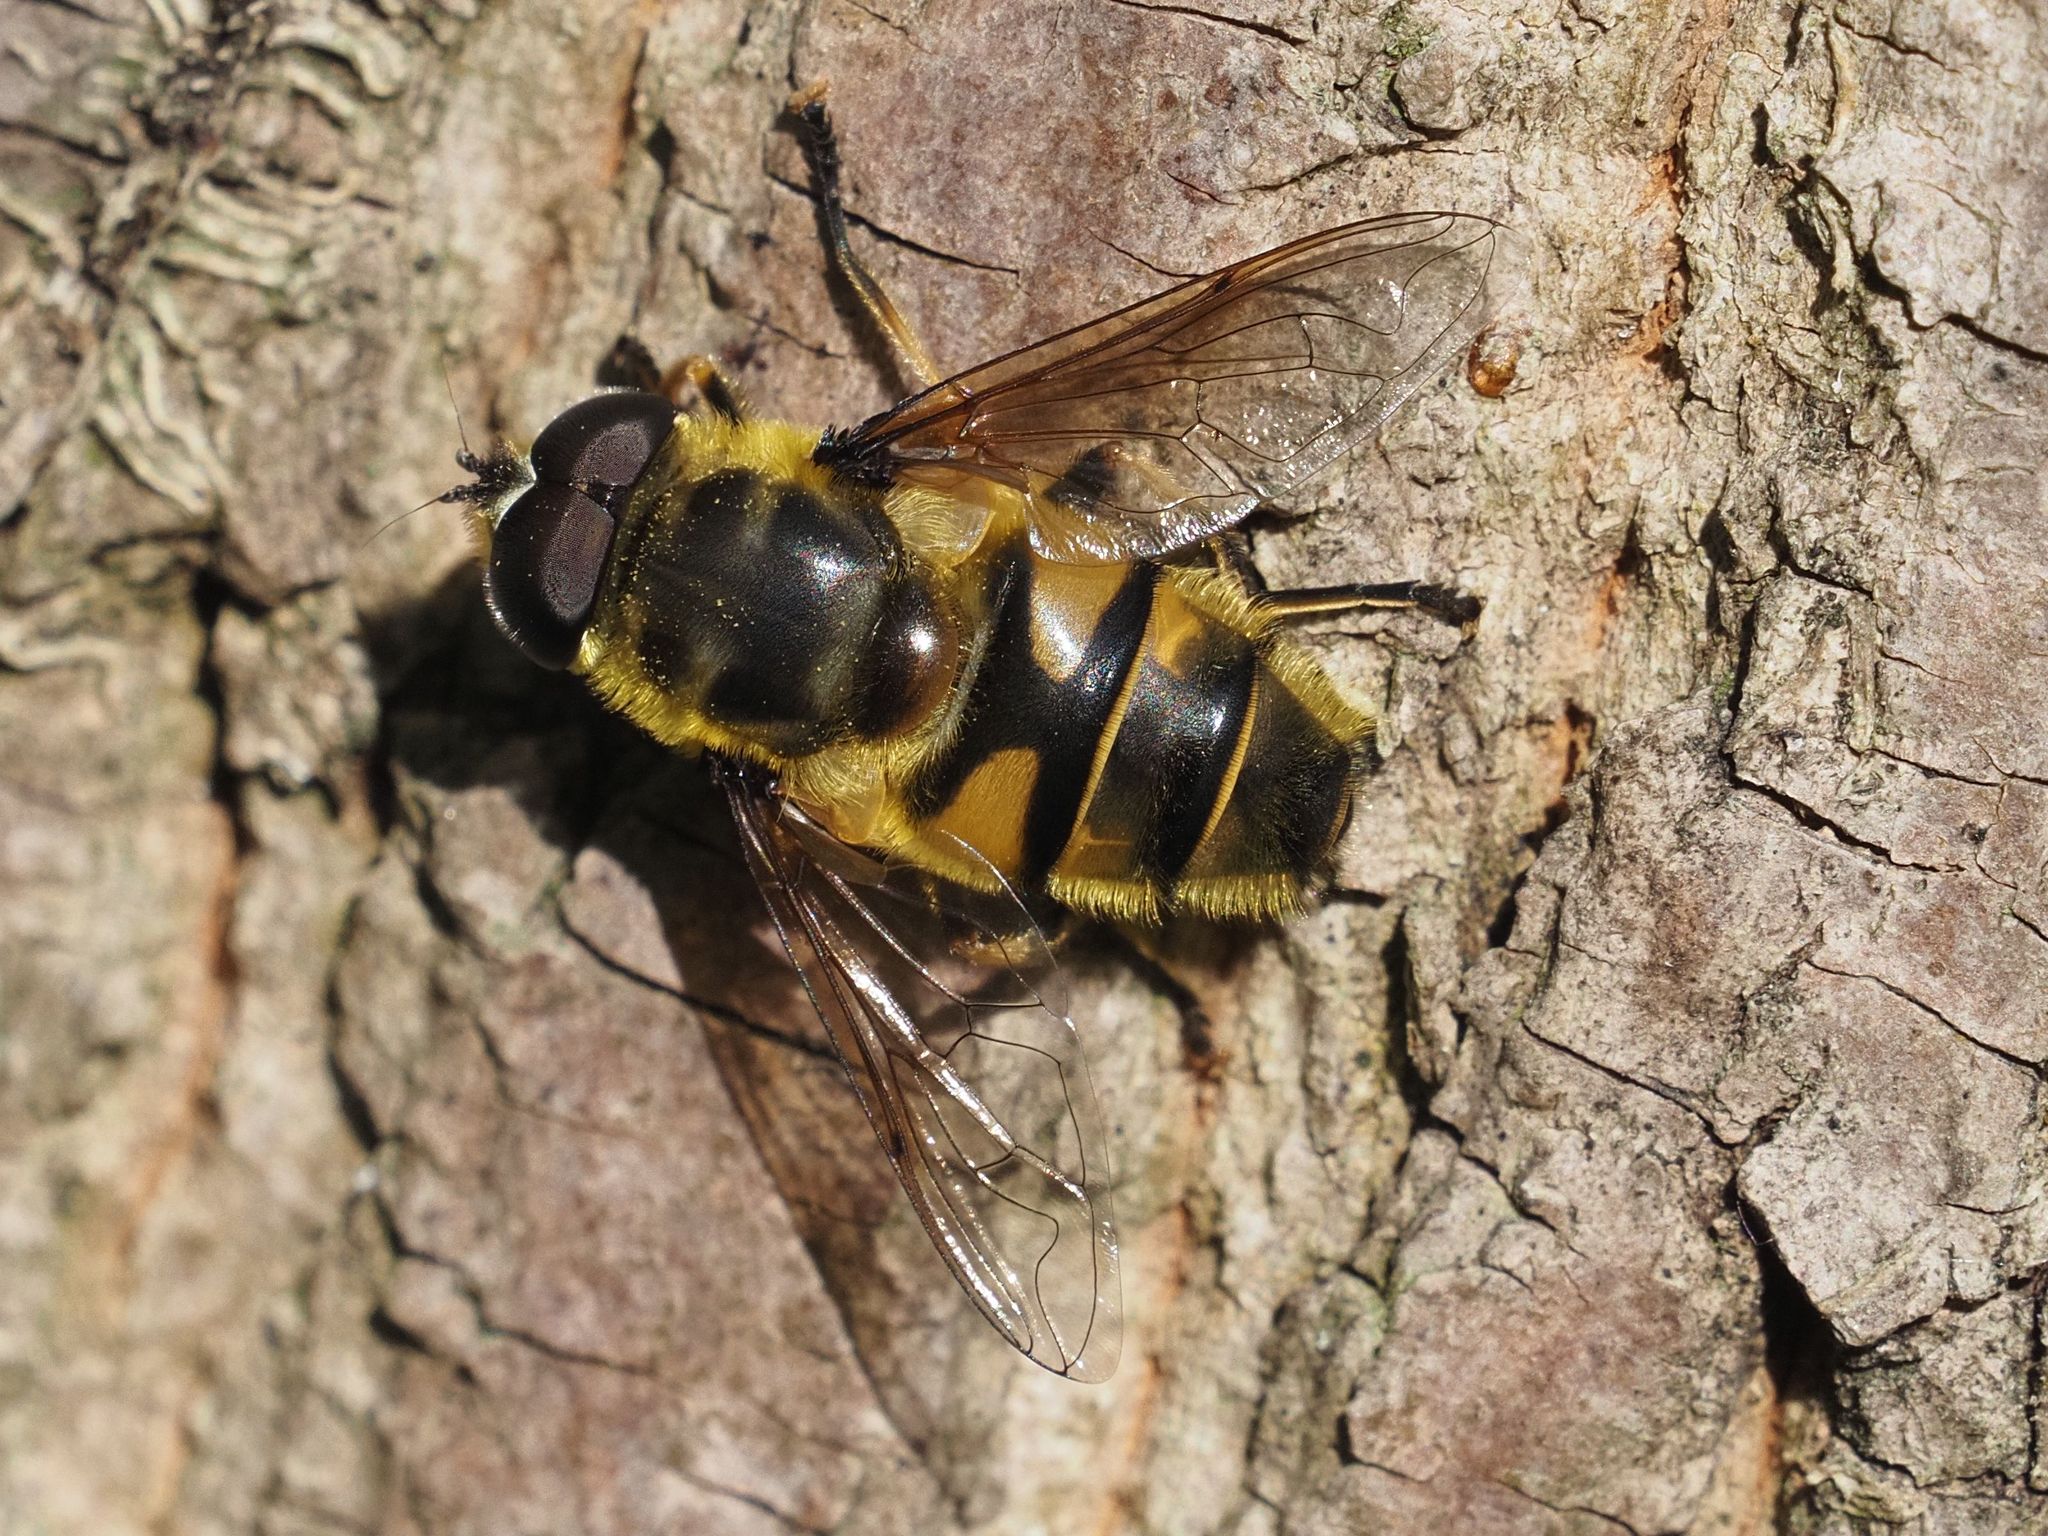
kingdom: Animalia
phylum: Arthropoda
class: Insecta
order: Diptera
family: Syrphidae
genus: Myathropa
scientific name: Myathropa florea
